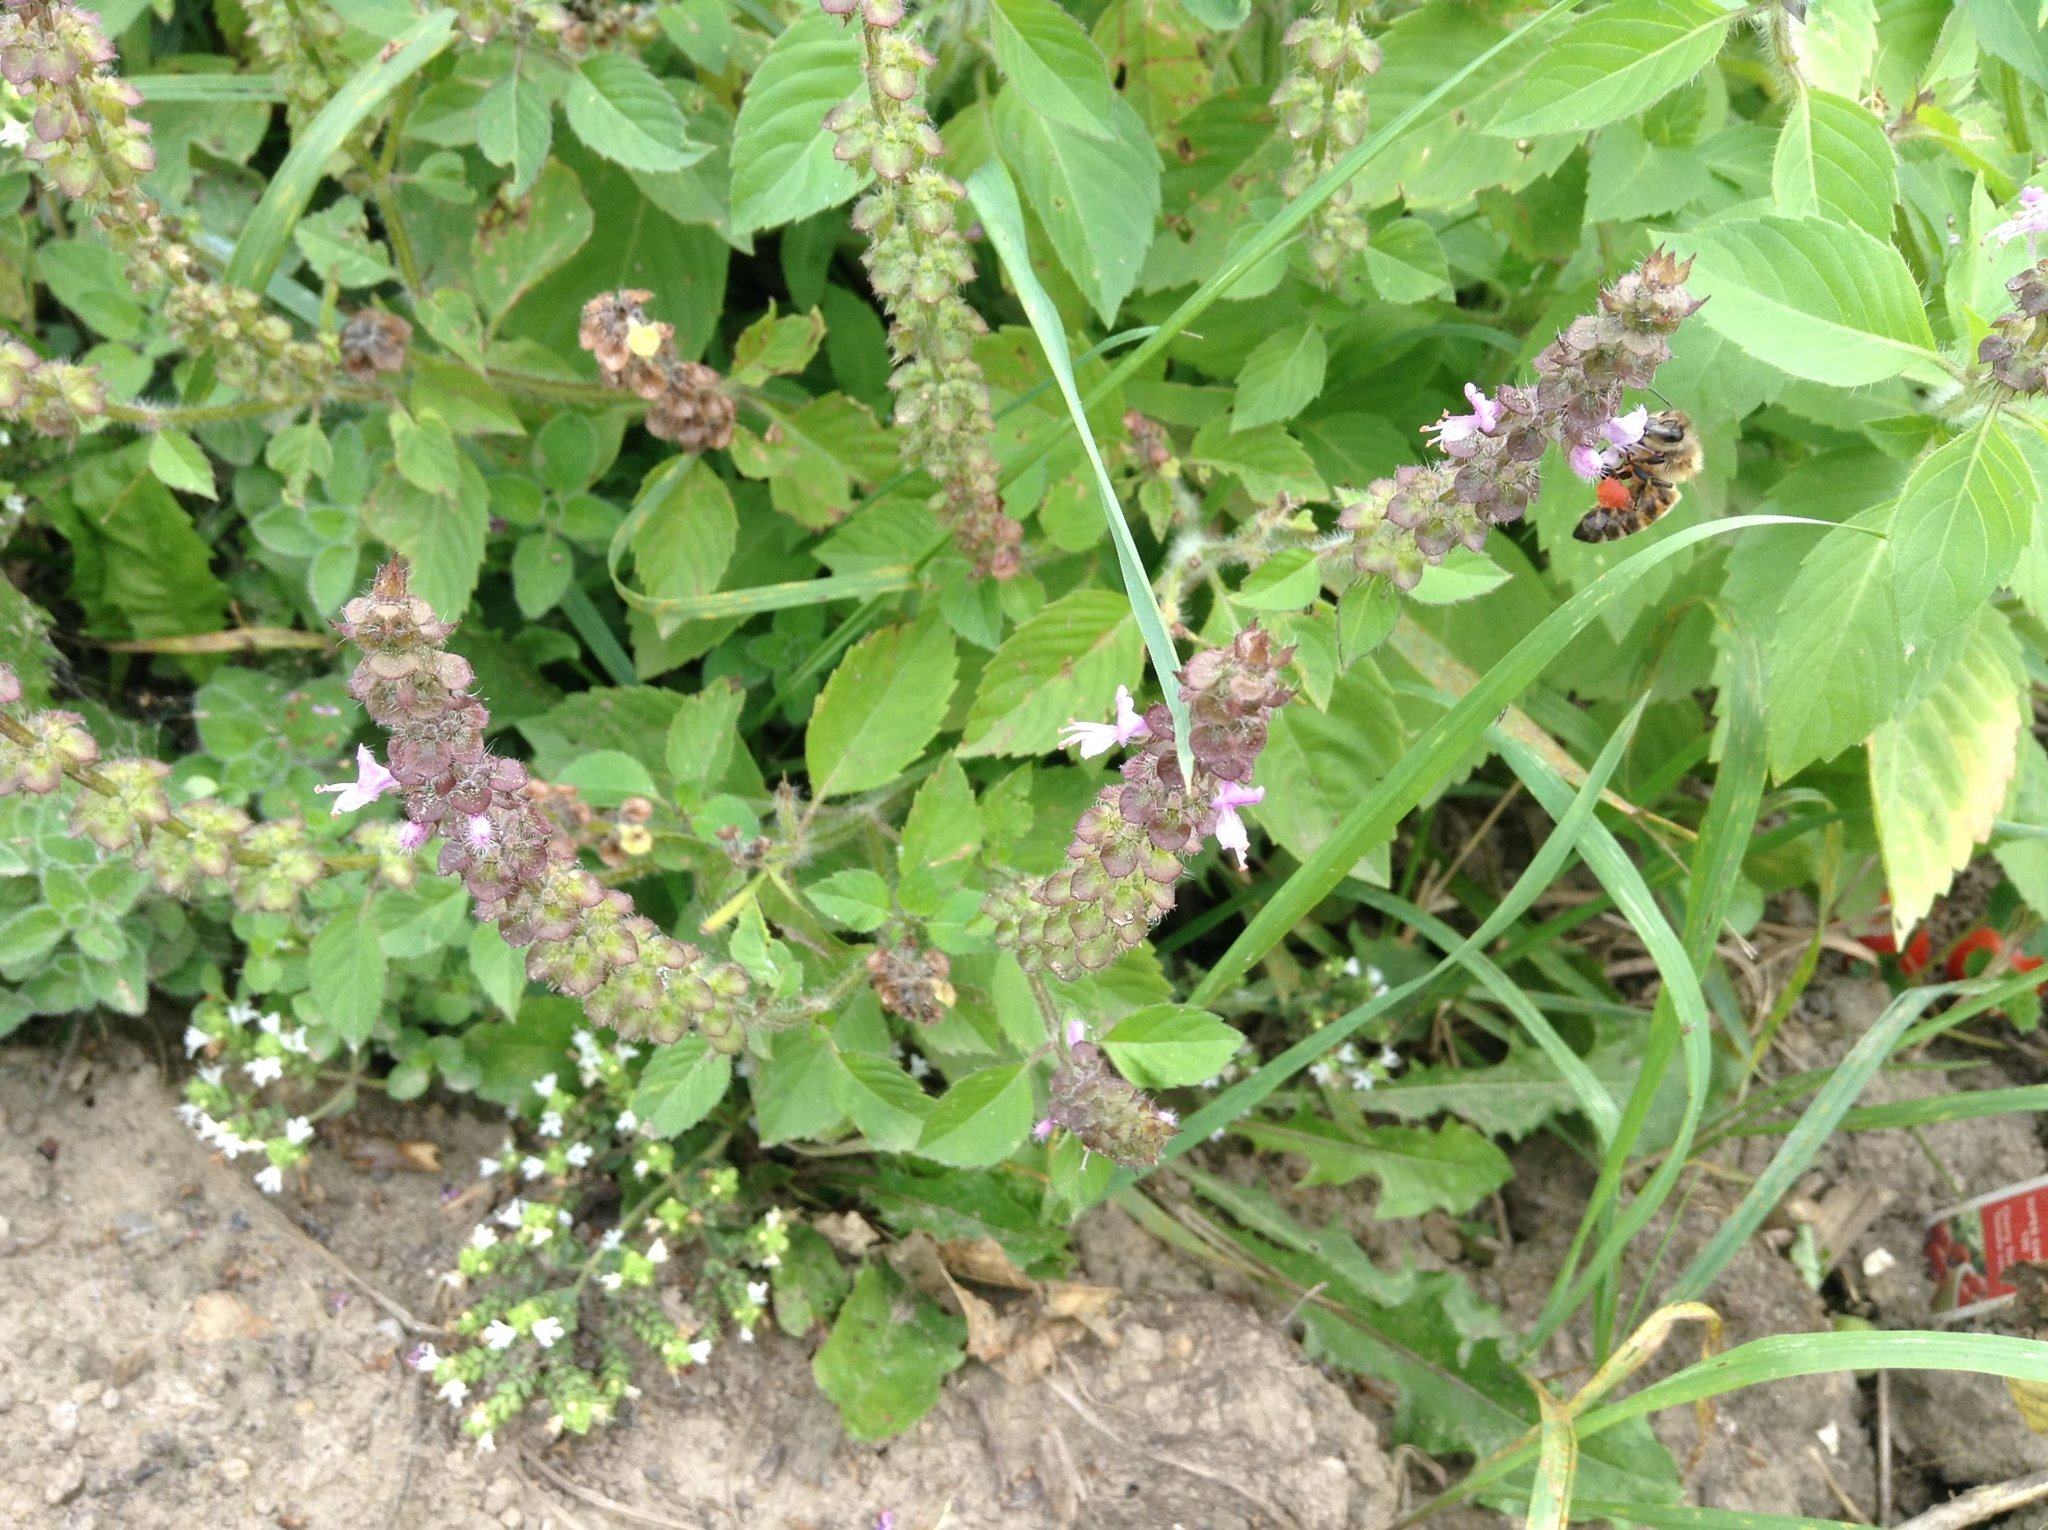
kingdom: Animalia
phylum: Arthropoda
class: Insecta
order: Hymenoptera
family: Apidae
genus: Apis
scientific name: Apis mellifera
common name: Honey bee
